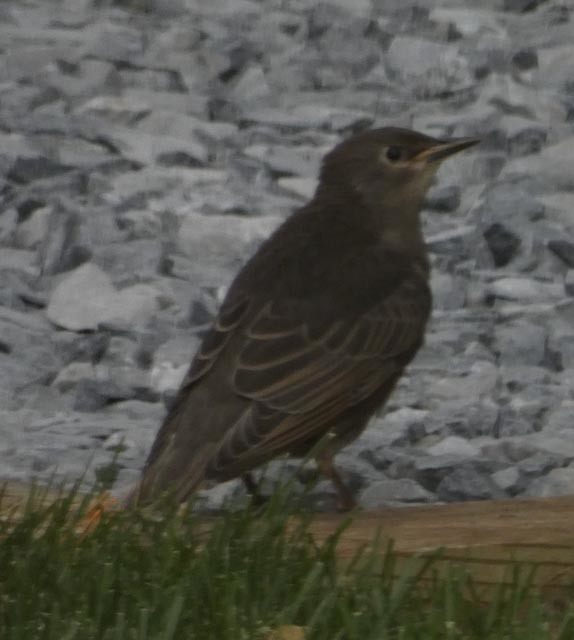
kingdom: Animalia
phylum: Chordata
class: Aves
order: Passeriformes
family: Sturnidae
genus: Sturnus
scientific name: Sturnus vulgaris
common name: Common starling
